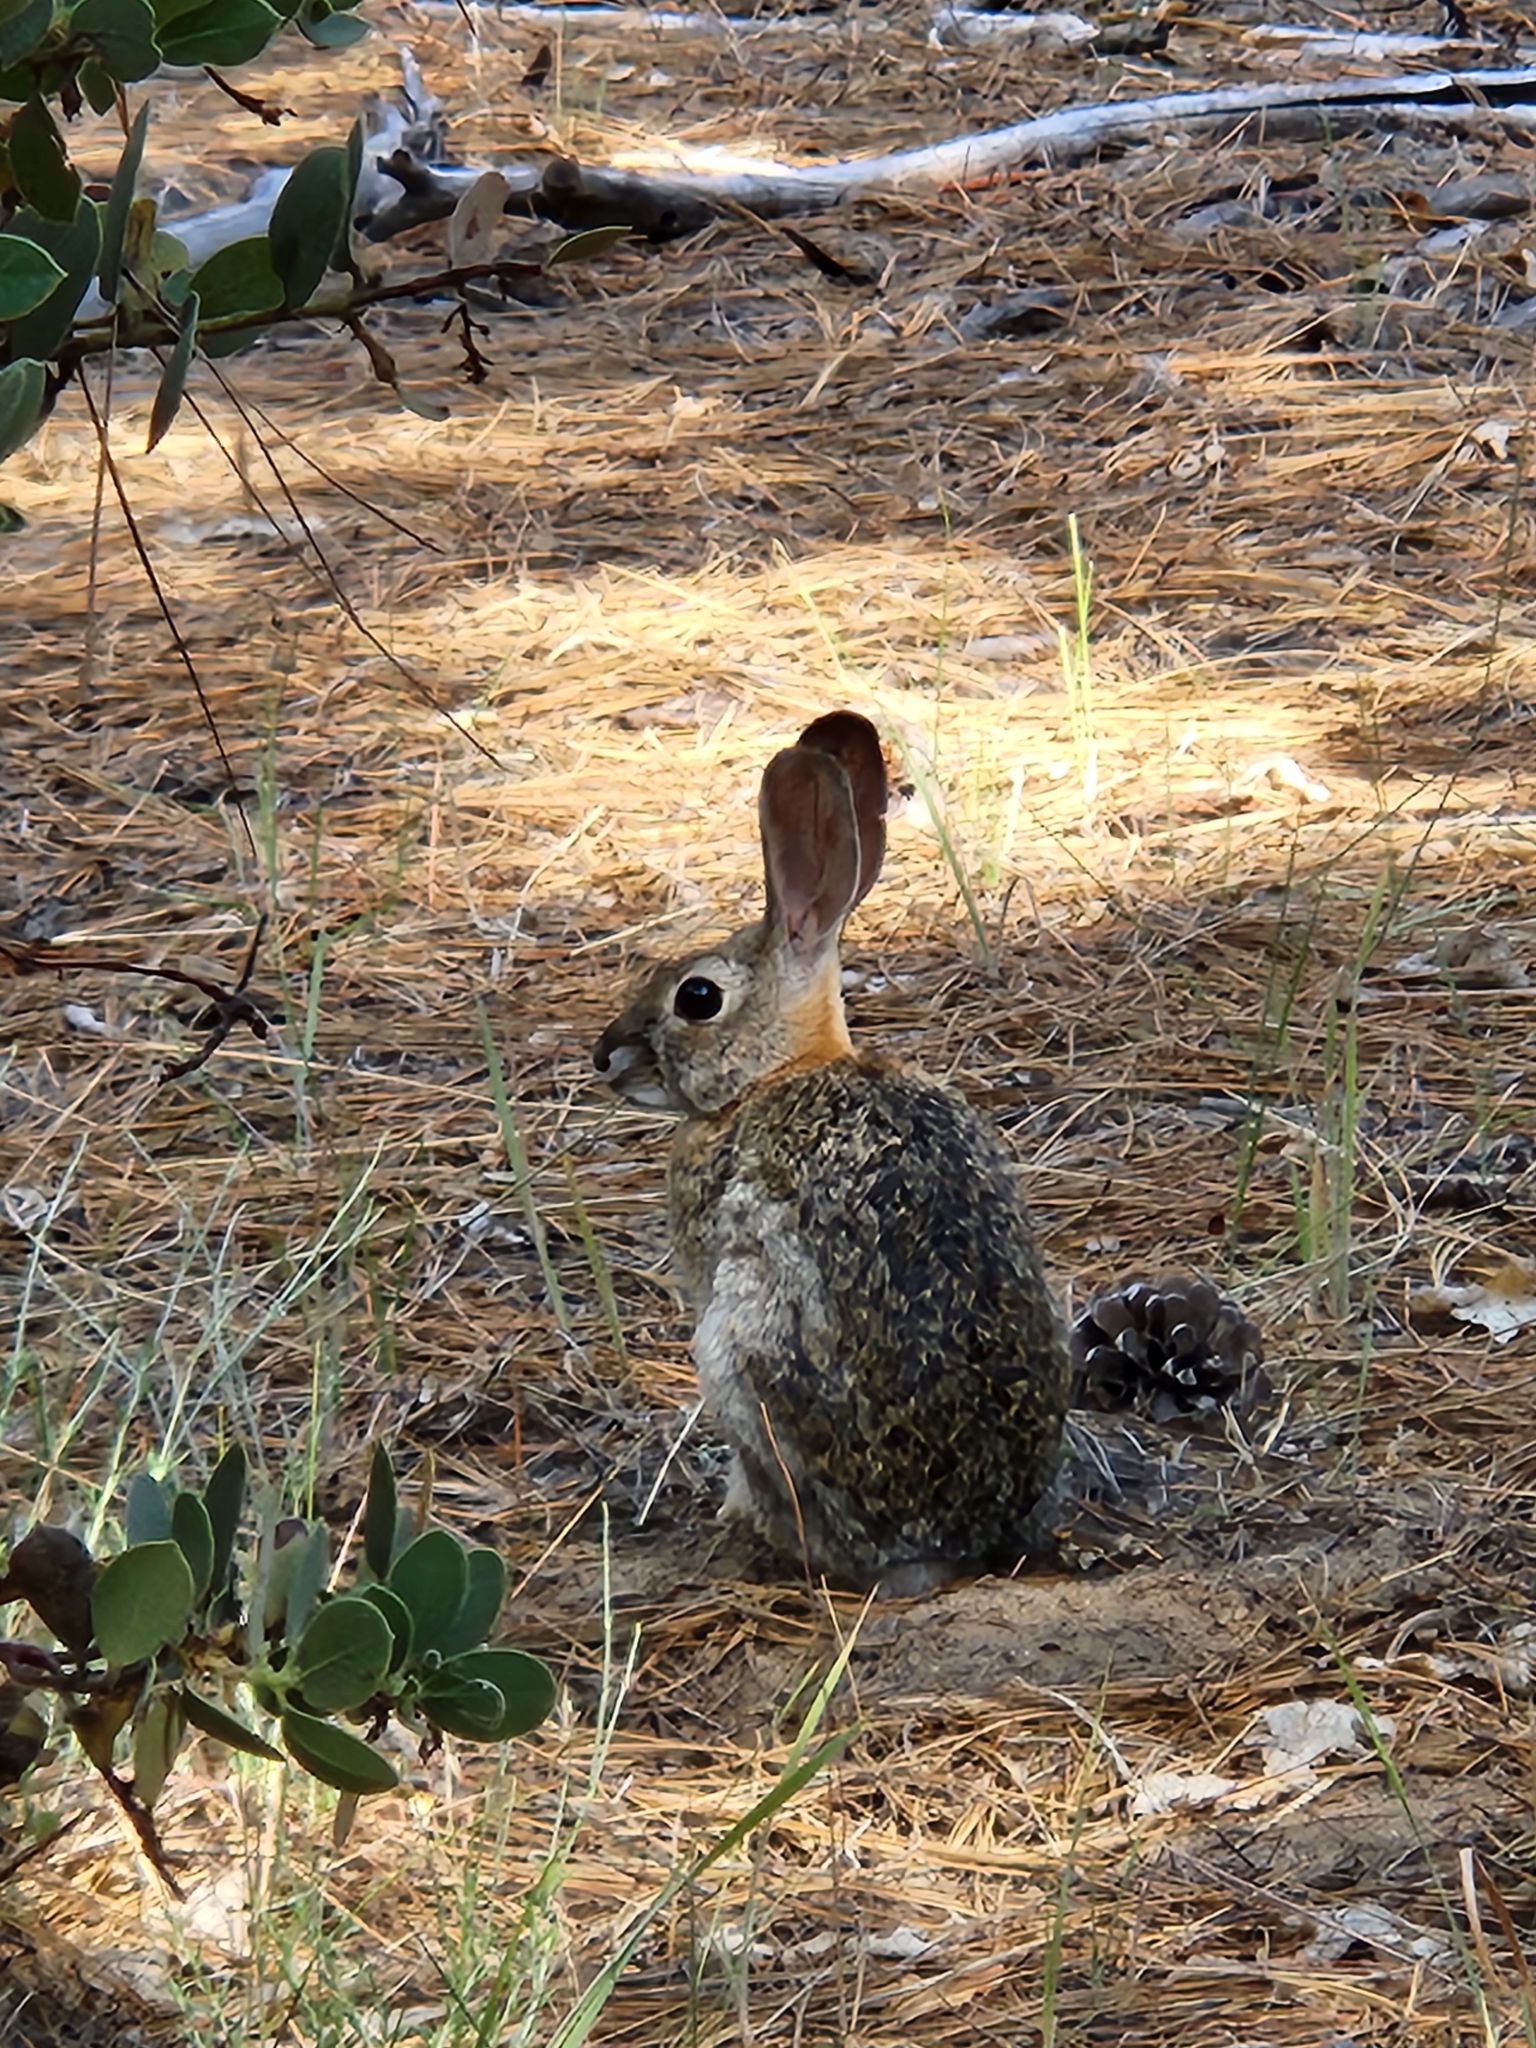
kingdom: Animalia
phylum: Chordata
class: Mammalia
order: Lagomorpha
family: Leporidae
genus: Sylvilagus
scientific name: Sylvilagus audubonii
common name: Desert cottontail
